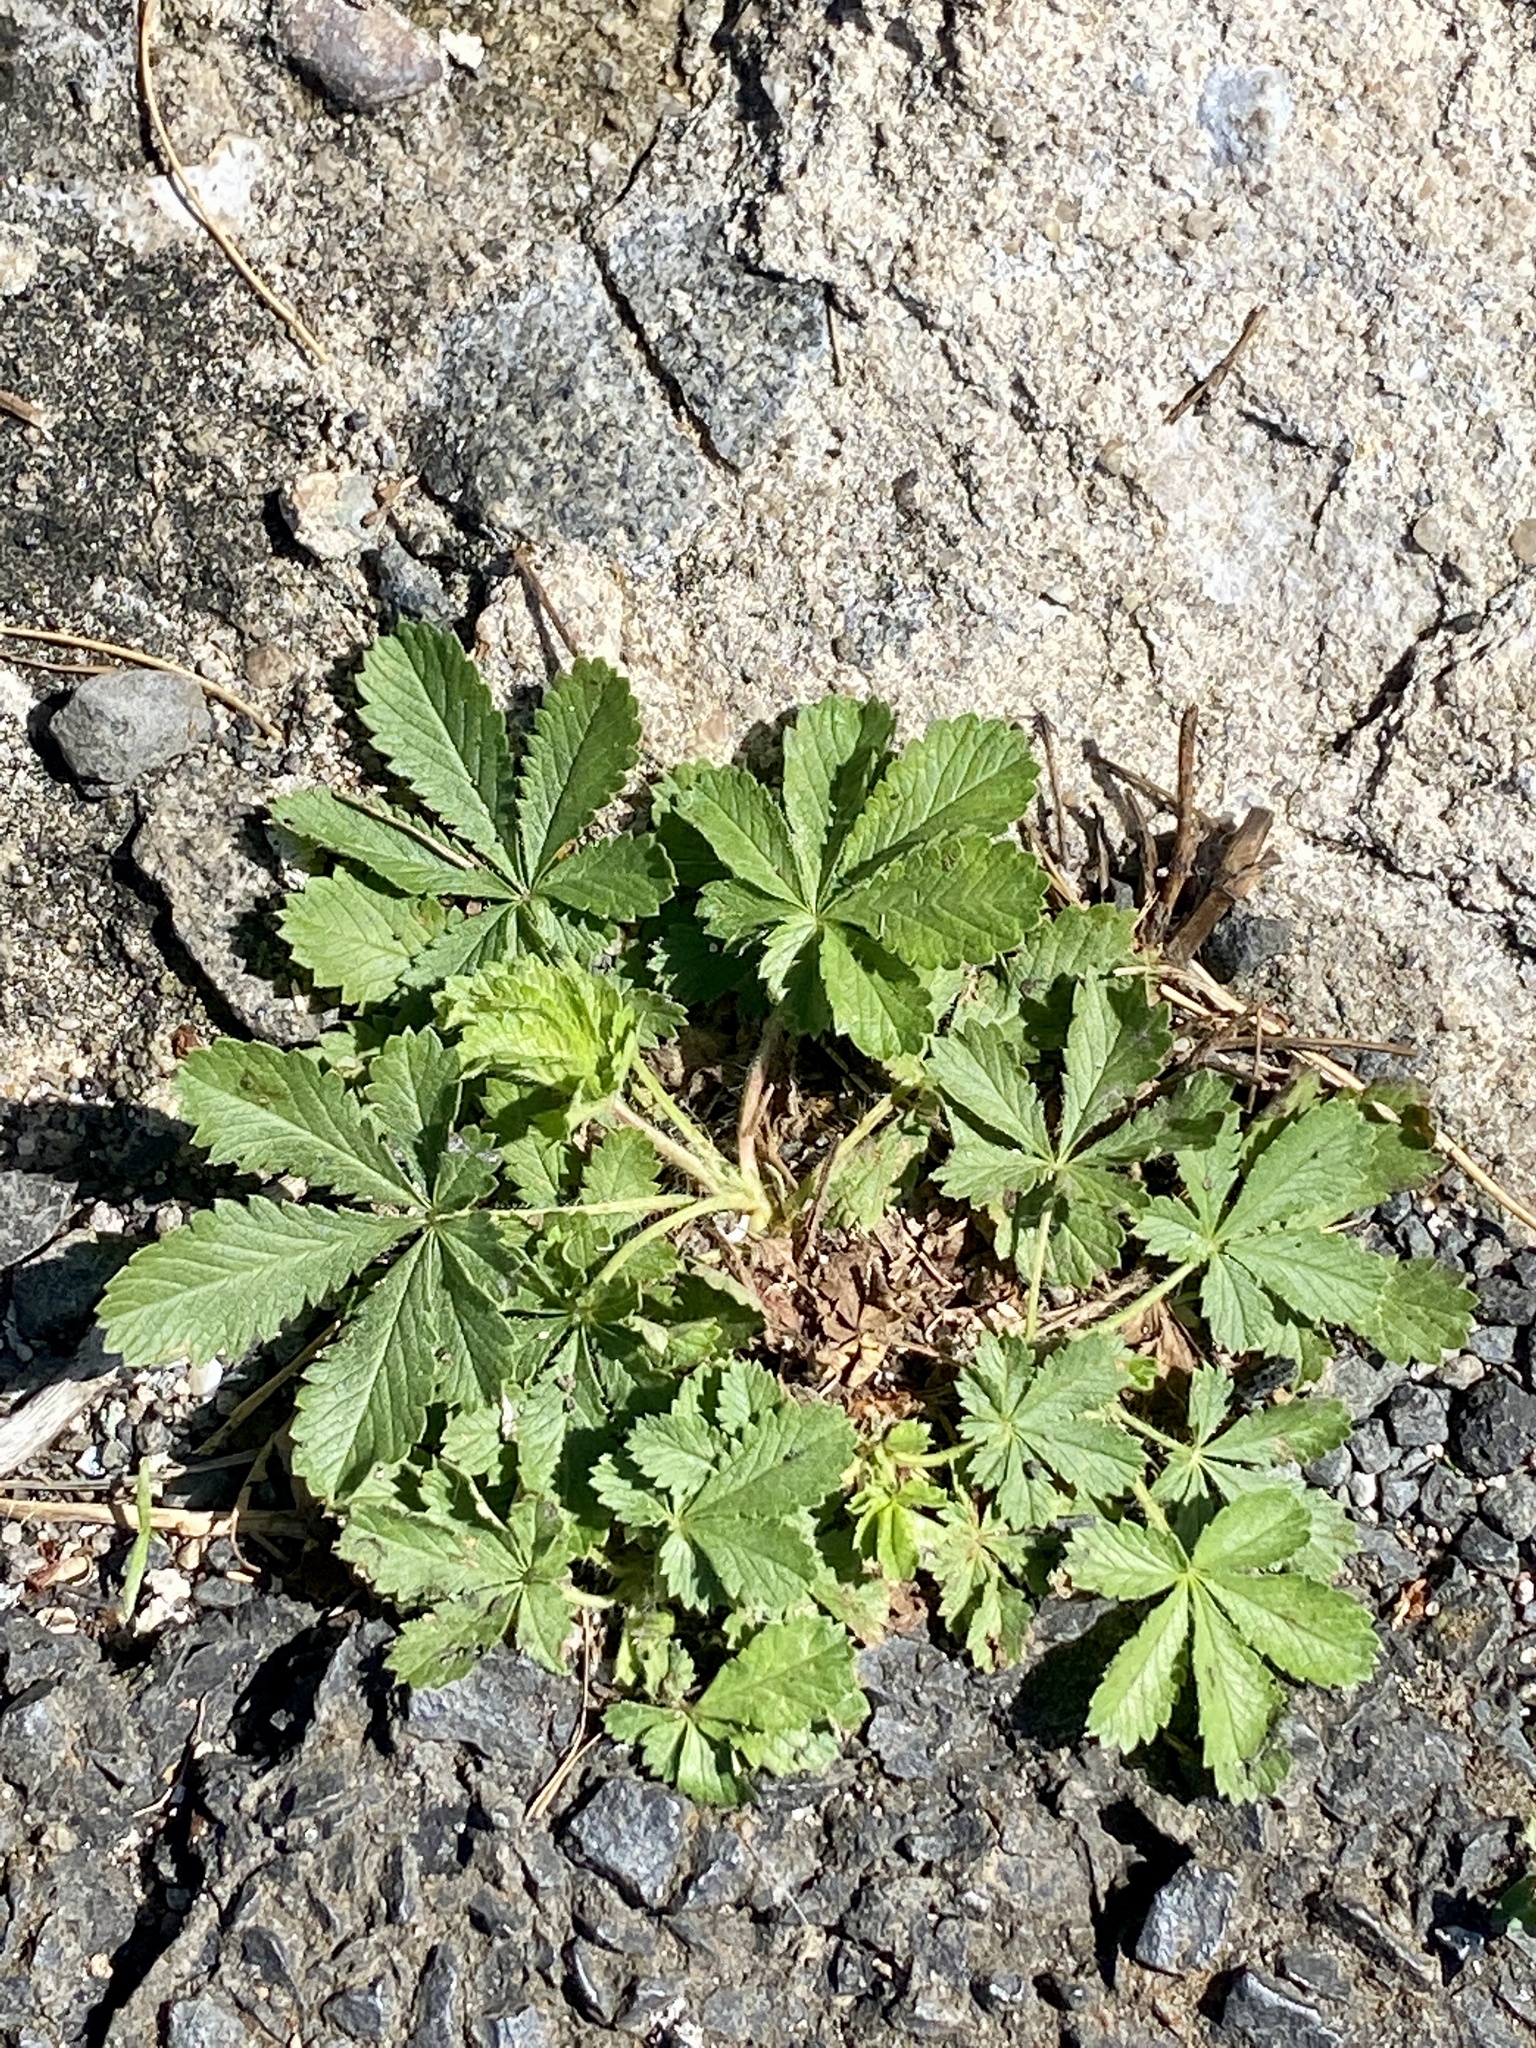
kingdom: Plantae
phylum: Tracheophyta
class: Magnoliopsida
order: Rosales
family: Rosaceae
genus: Potentilla
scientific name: Potentilla recta
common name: Sulphur cinquefoil
